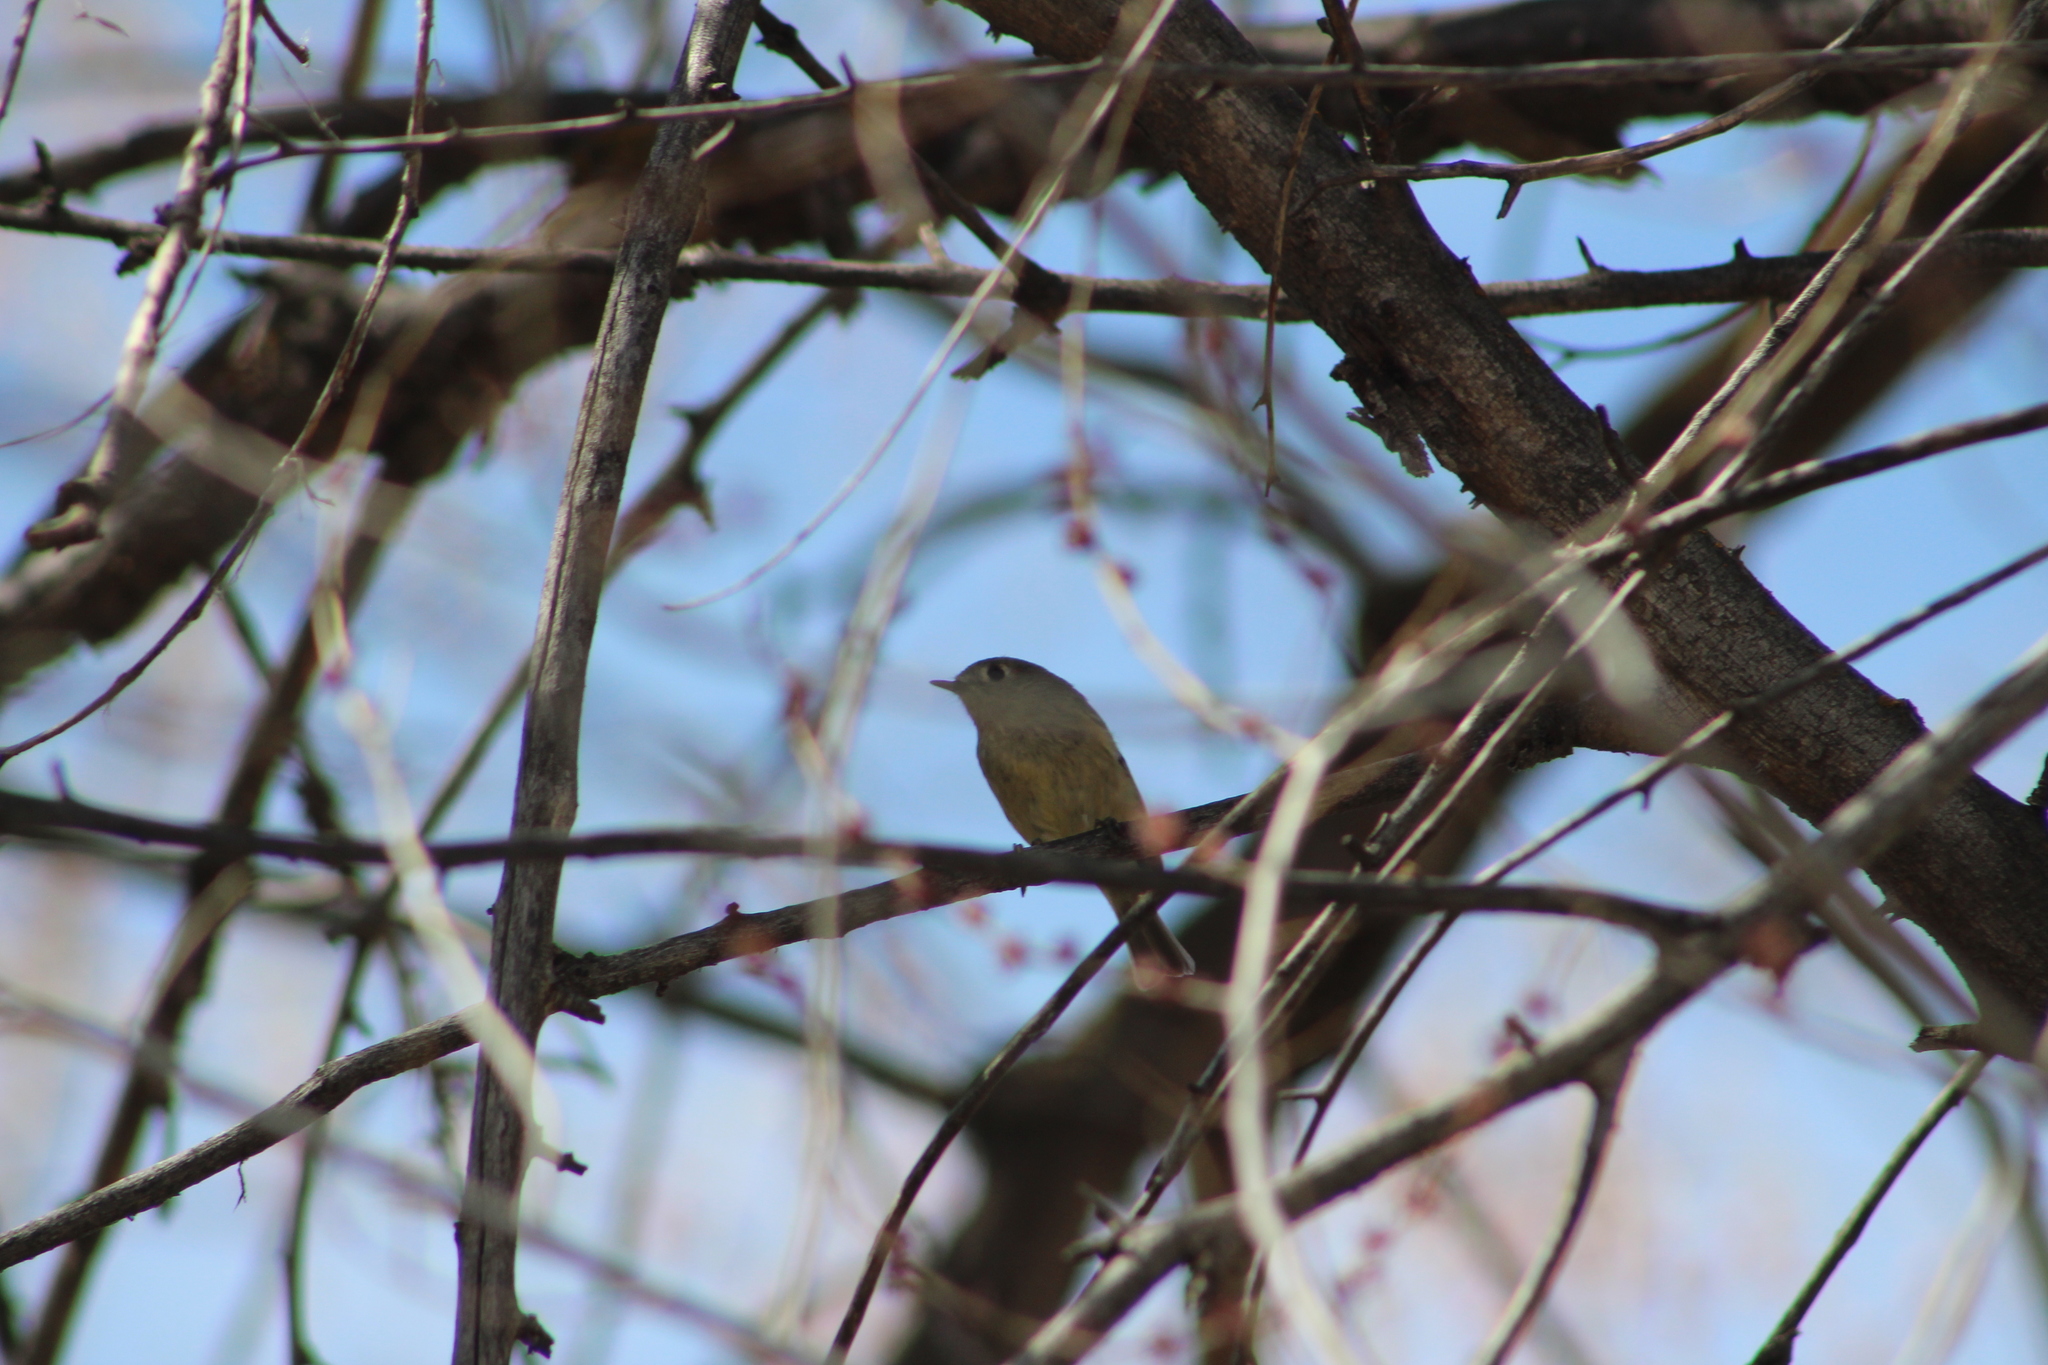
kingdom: Animalia
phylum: Chordata
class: Aves
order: Passeriformes
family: Regulidae
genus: Regulus
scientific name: Regulus calendula
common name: Ruby-crowned kinglet
